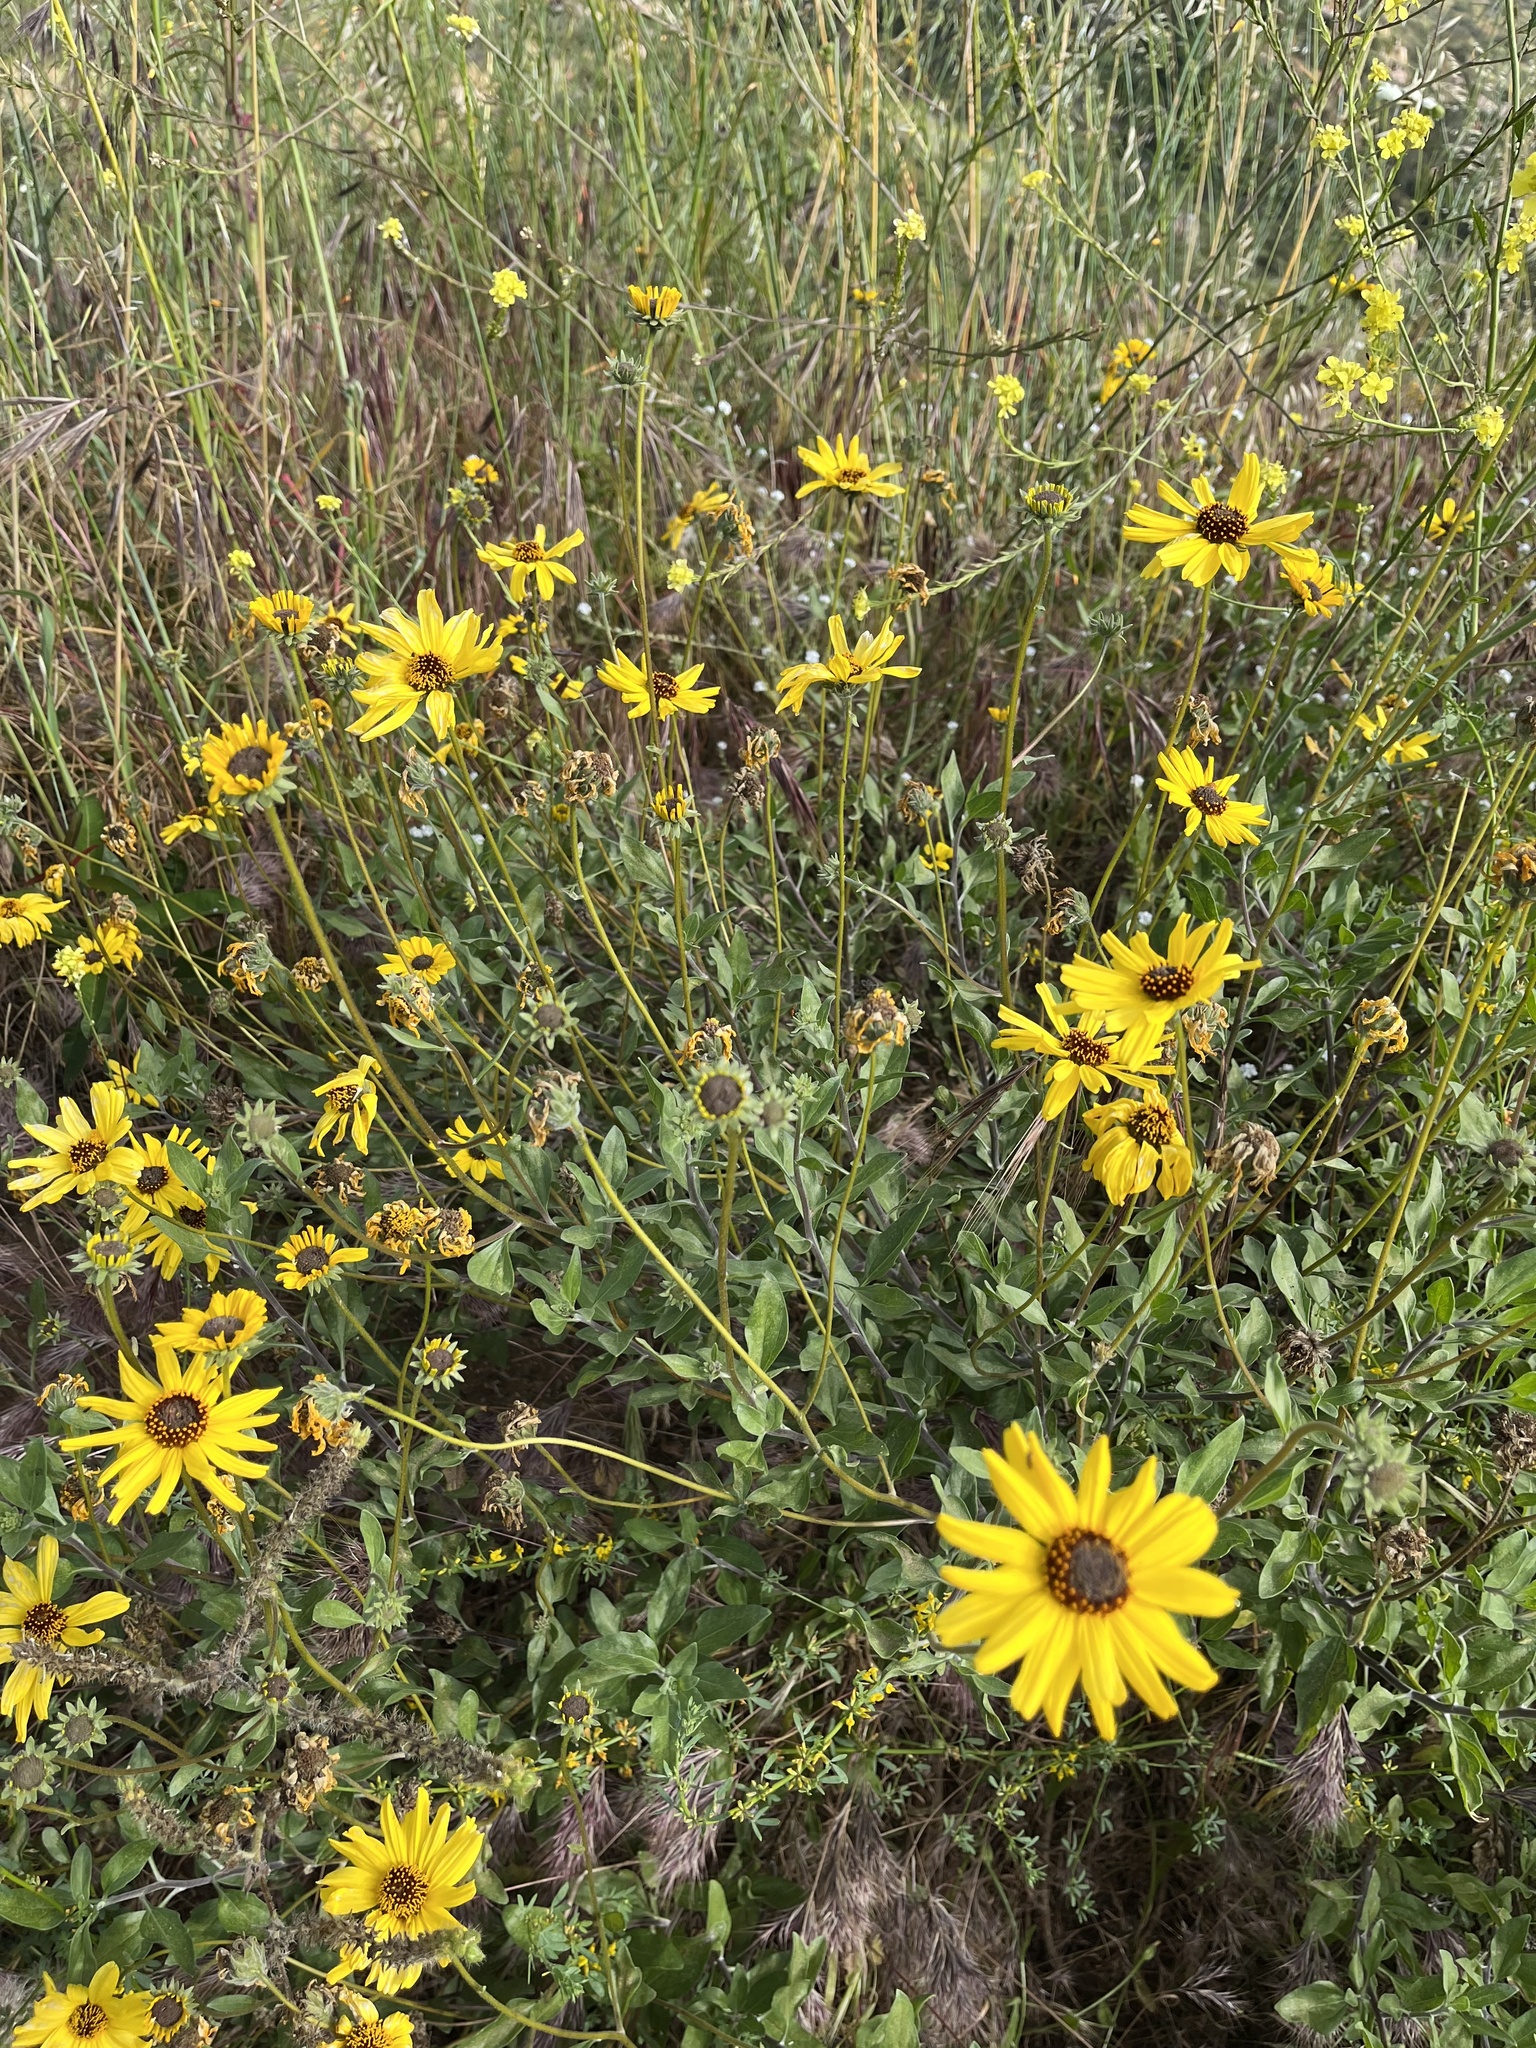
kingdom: Plantae
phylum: Tracheophyta
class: Magnoliopsida
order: Asterales
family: Asteraceae
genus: Encelia
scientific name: Encelia californica
